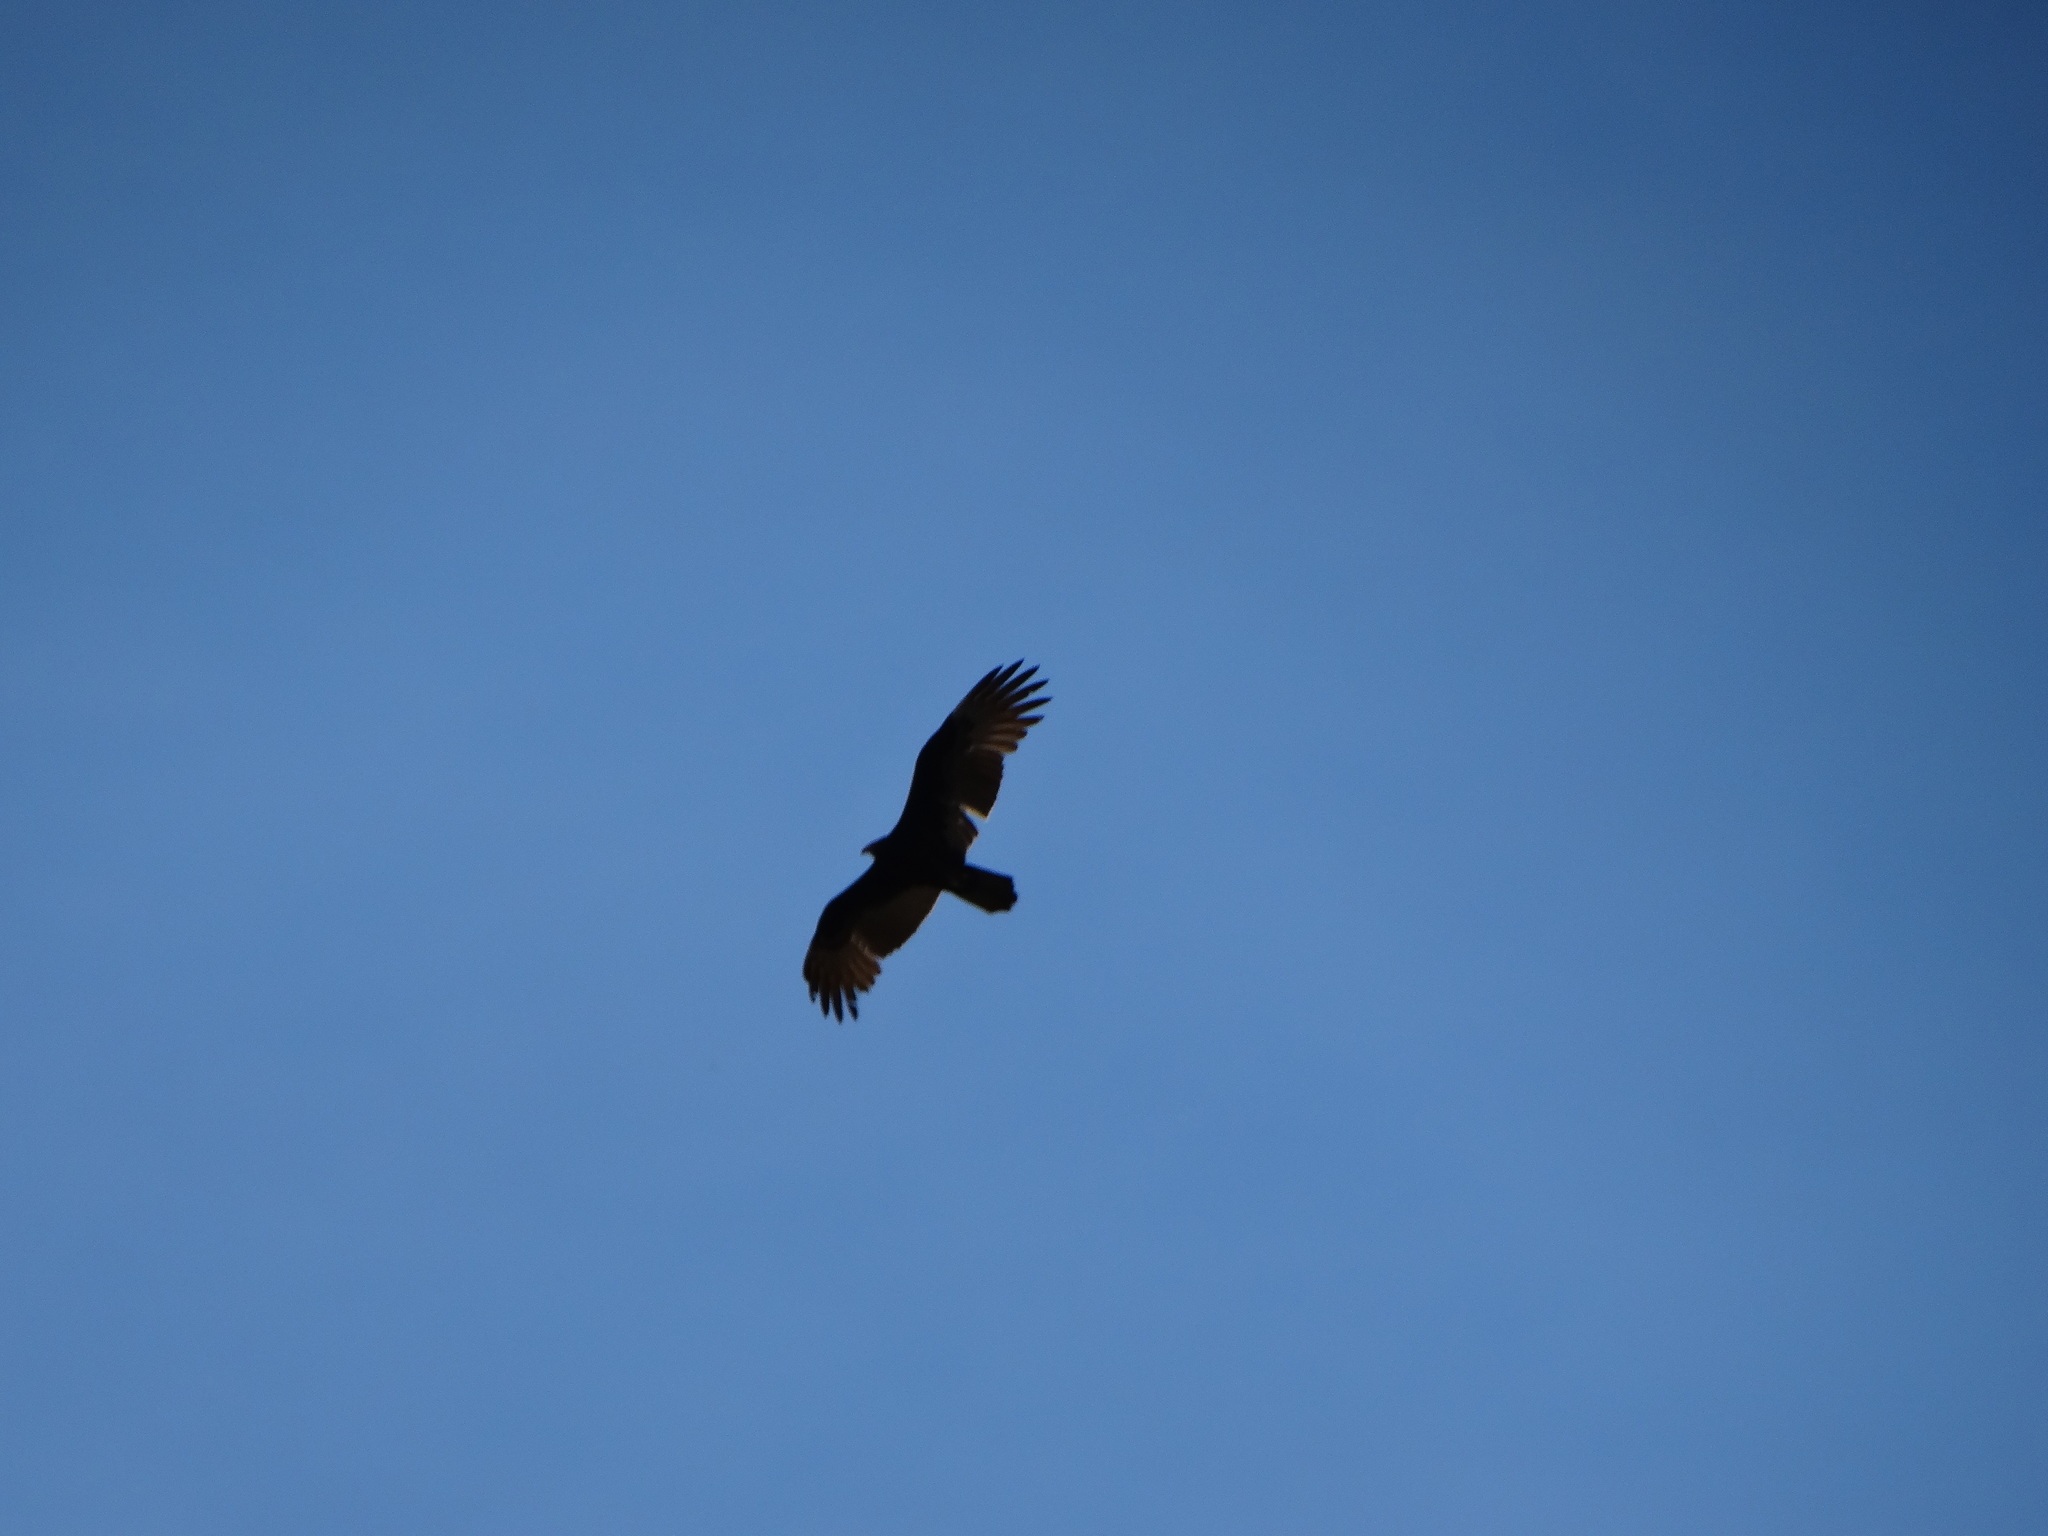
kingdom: Animalia
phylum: Chordata
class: Aves
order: Accipitriformes
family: Cathartidae
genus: Cathartes
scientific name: Cathartes aura
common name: Turkey vulture
